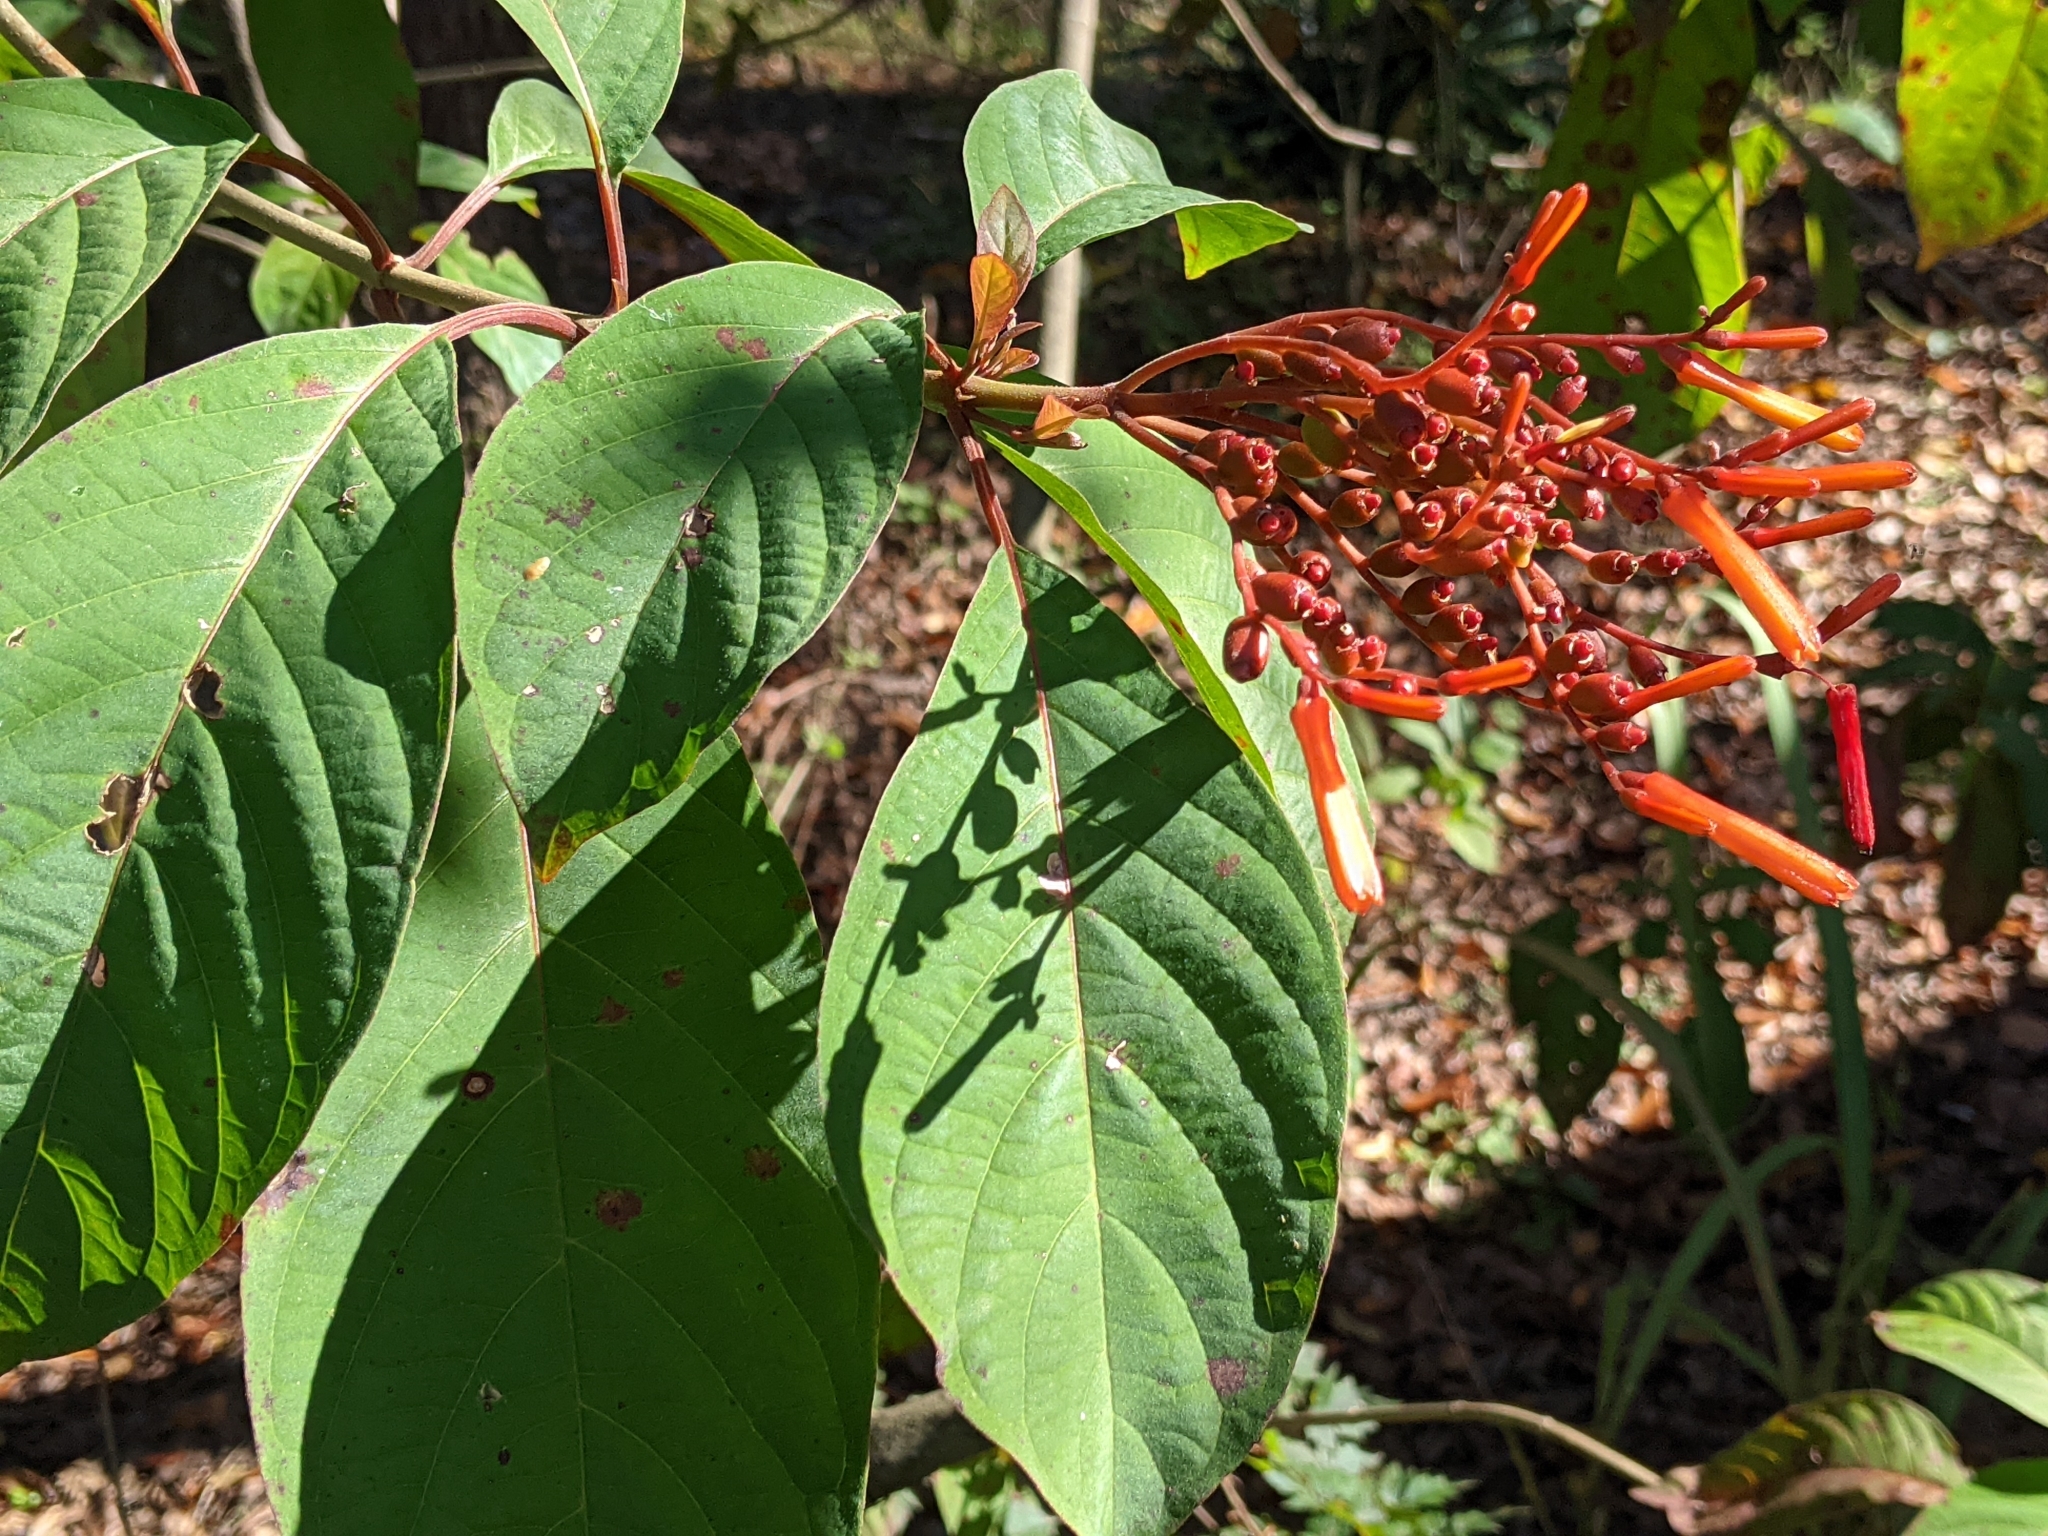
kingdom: Plantae
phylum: Tracheophyta
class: Magnoliopsida
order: Gentianales
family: Rubiaceae
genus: Hamelia
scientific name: Hamelia patens
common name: Redhead
